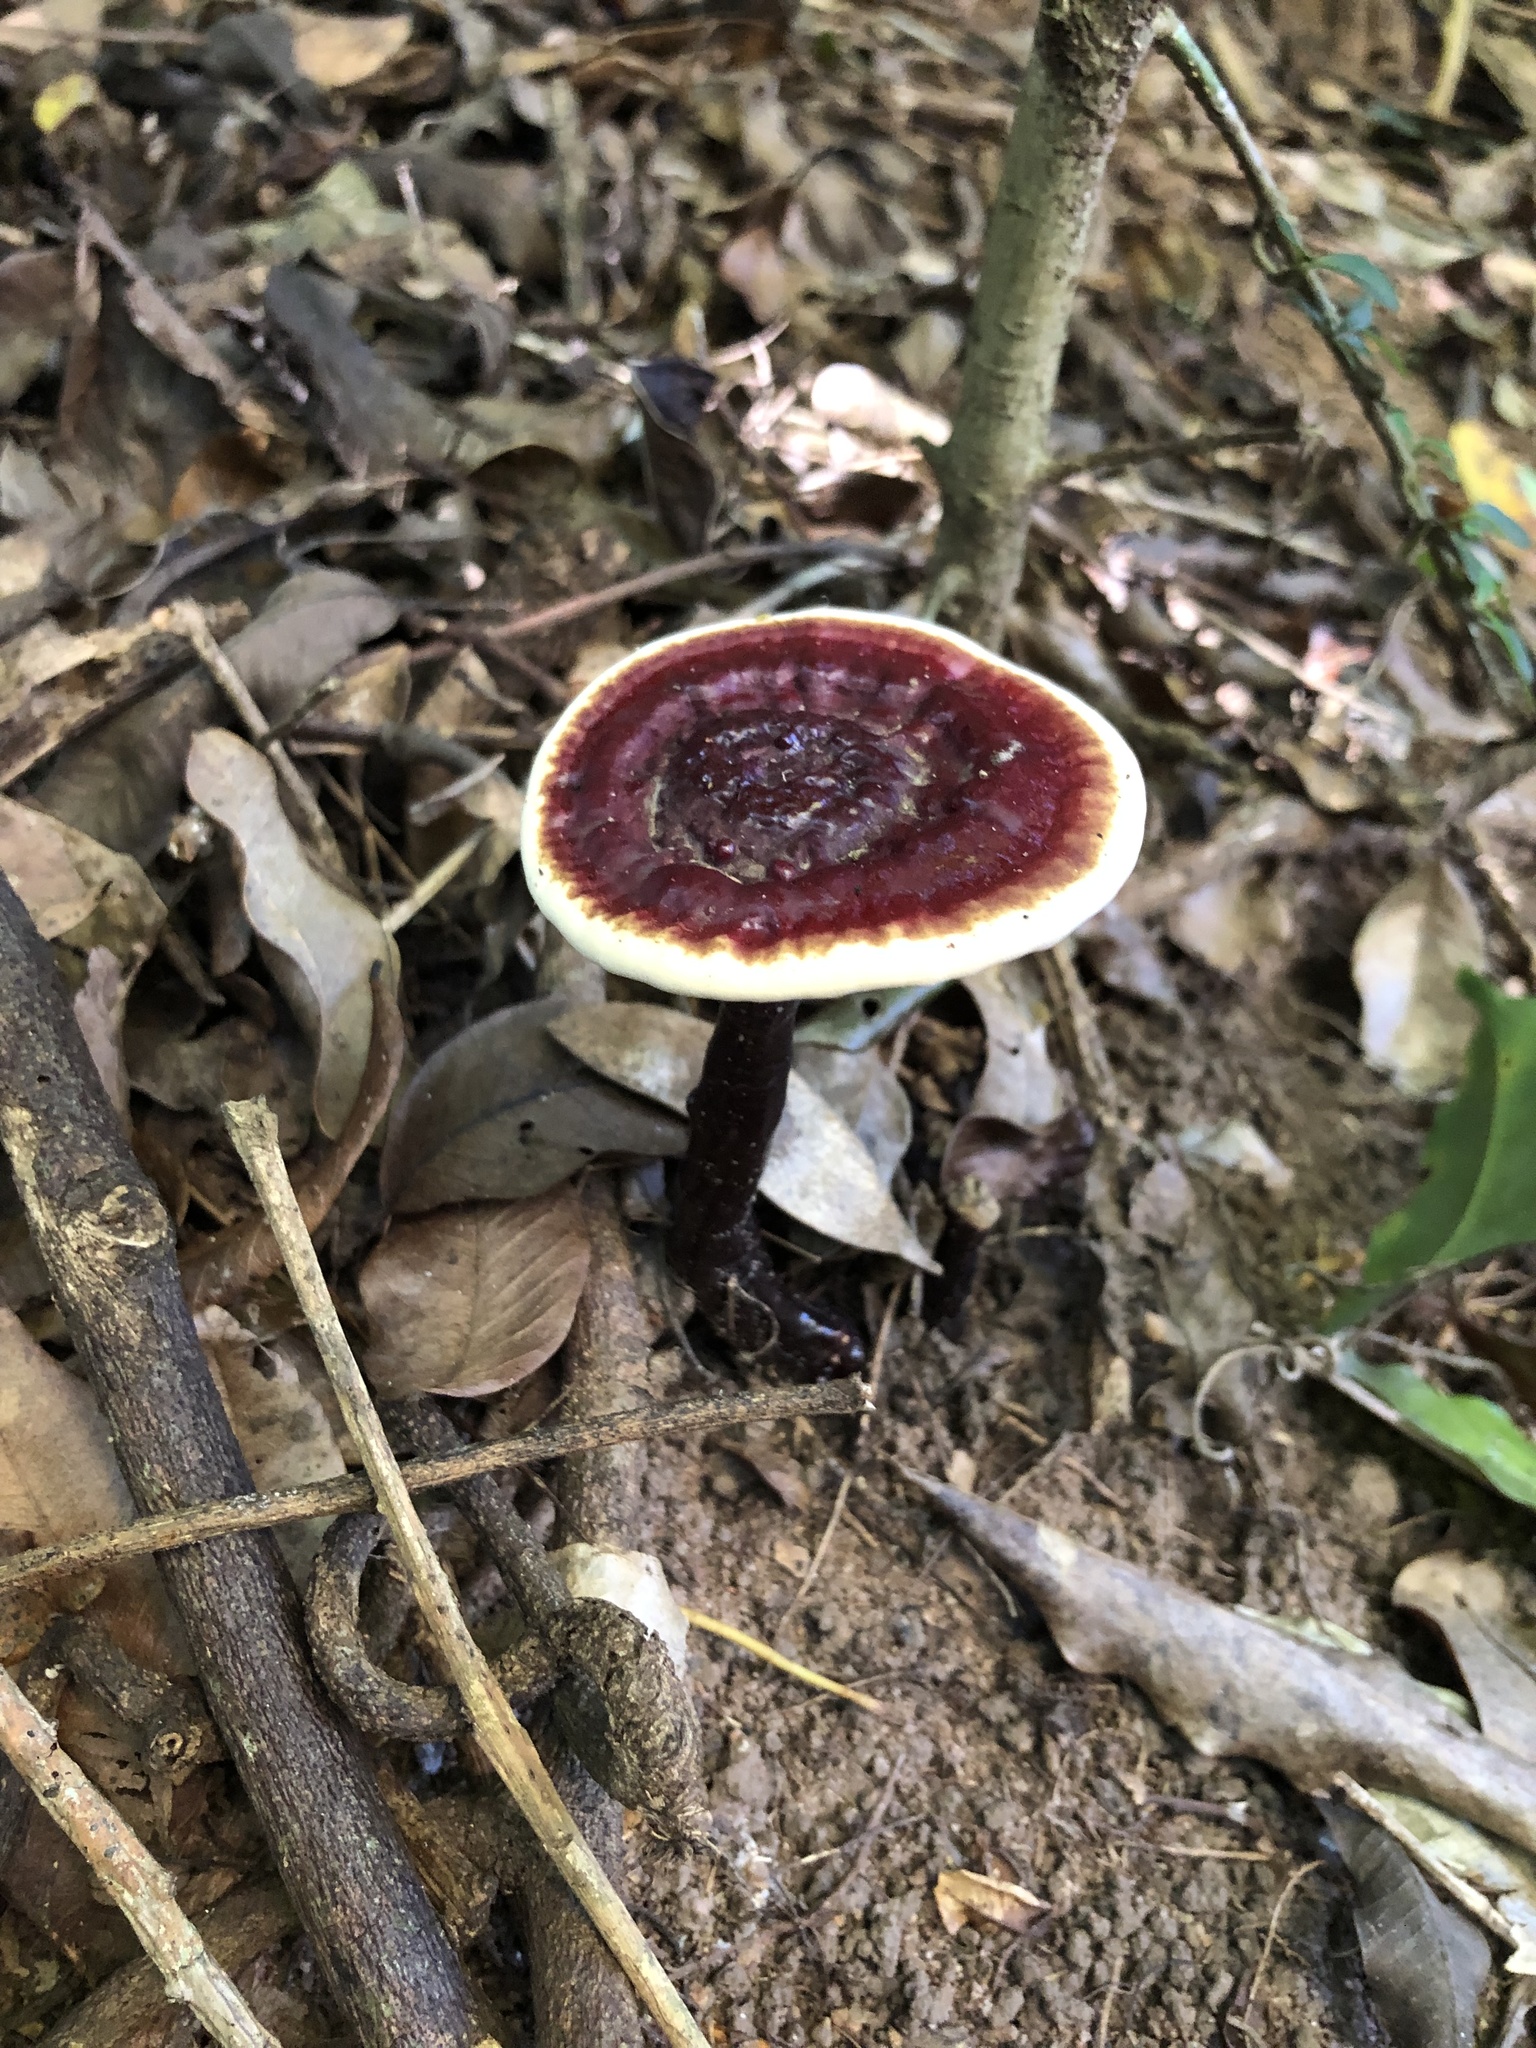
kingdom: Fungi
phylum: Basidiomycota
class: Agaricomycetes
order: Polyporales
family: Ganodermataceae
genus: Sanguinoderma
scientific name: Sanguinoderma rude
